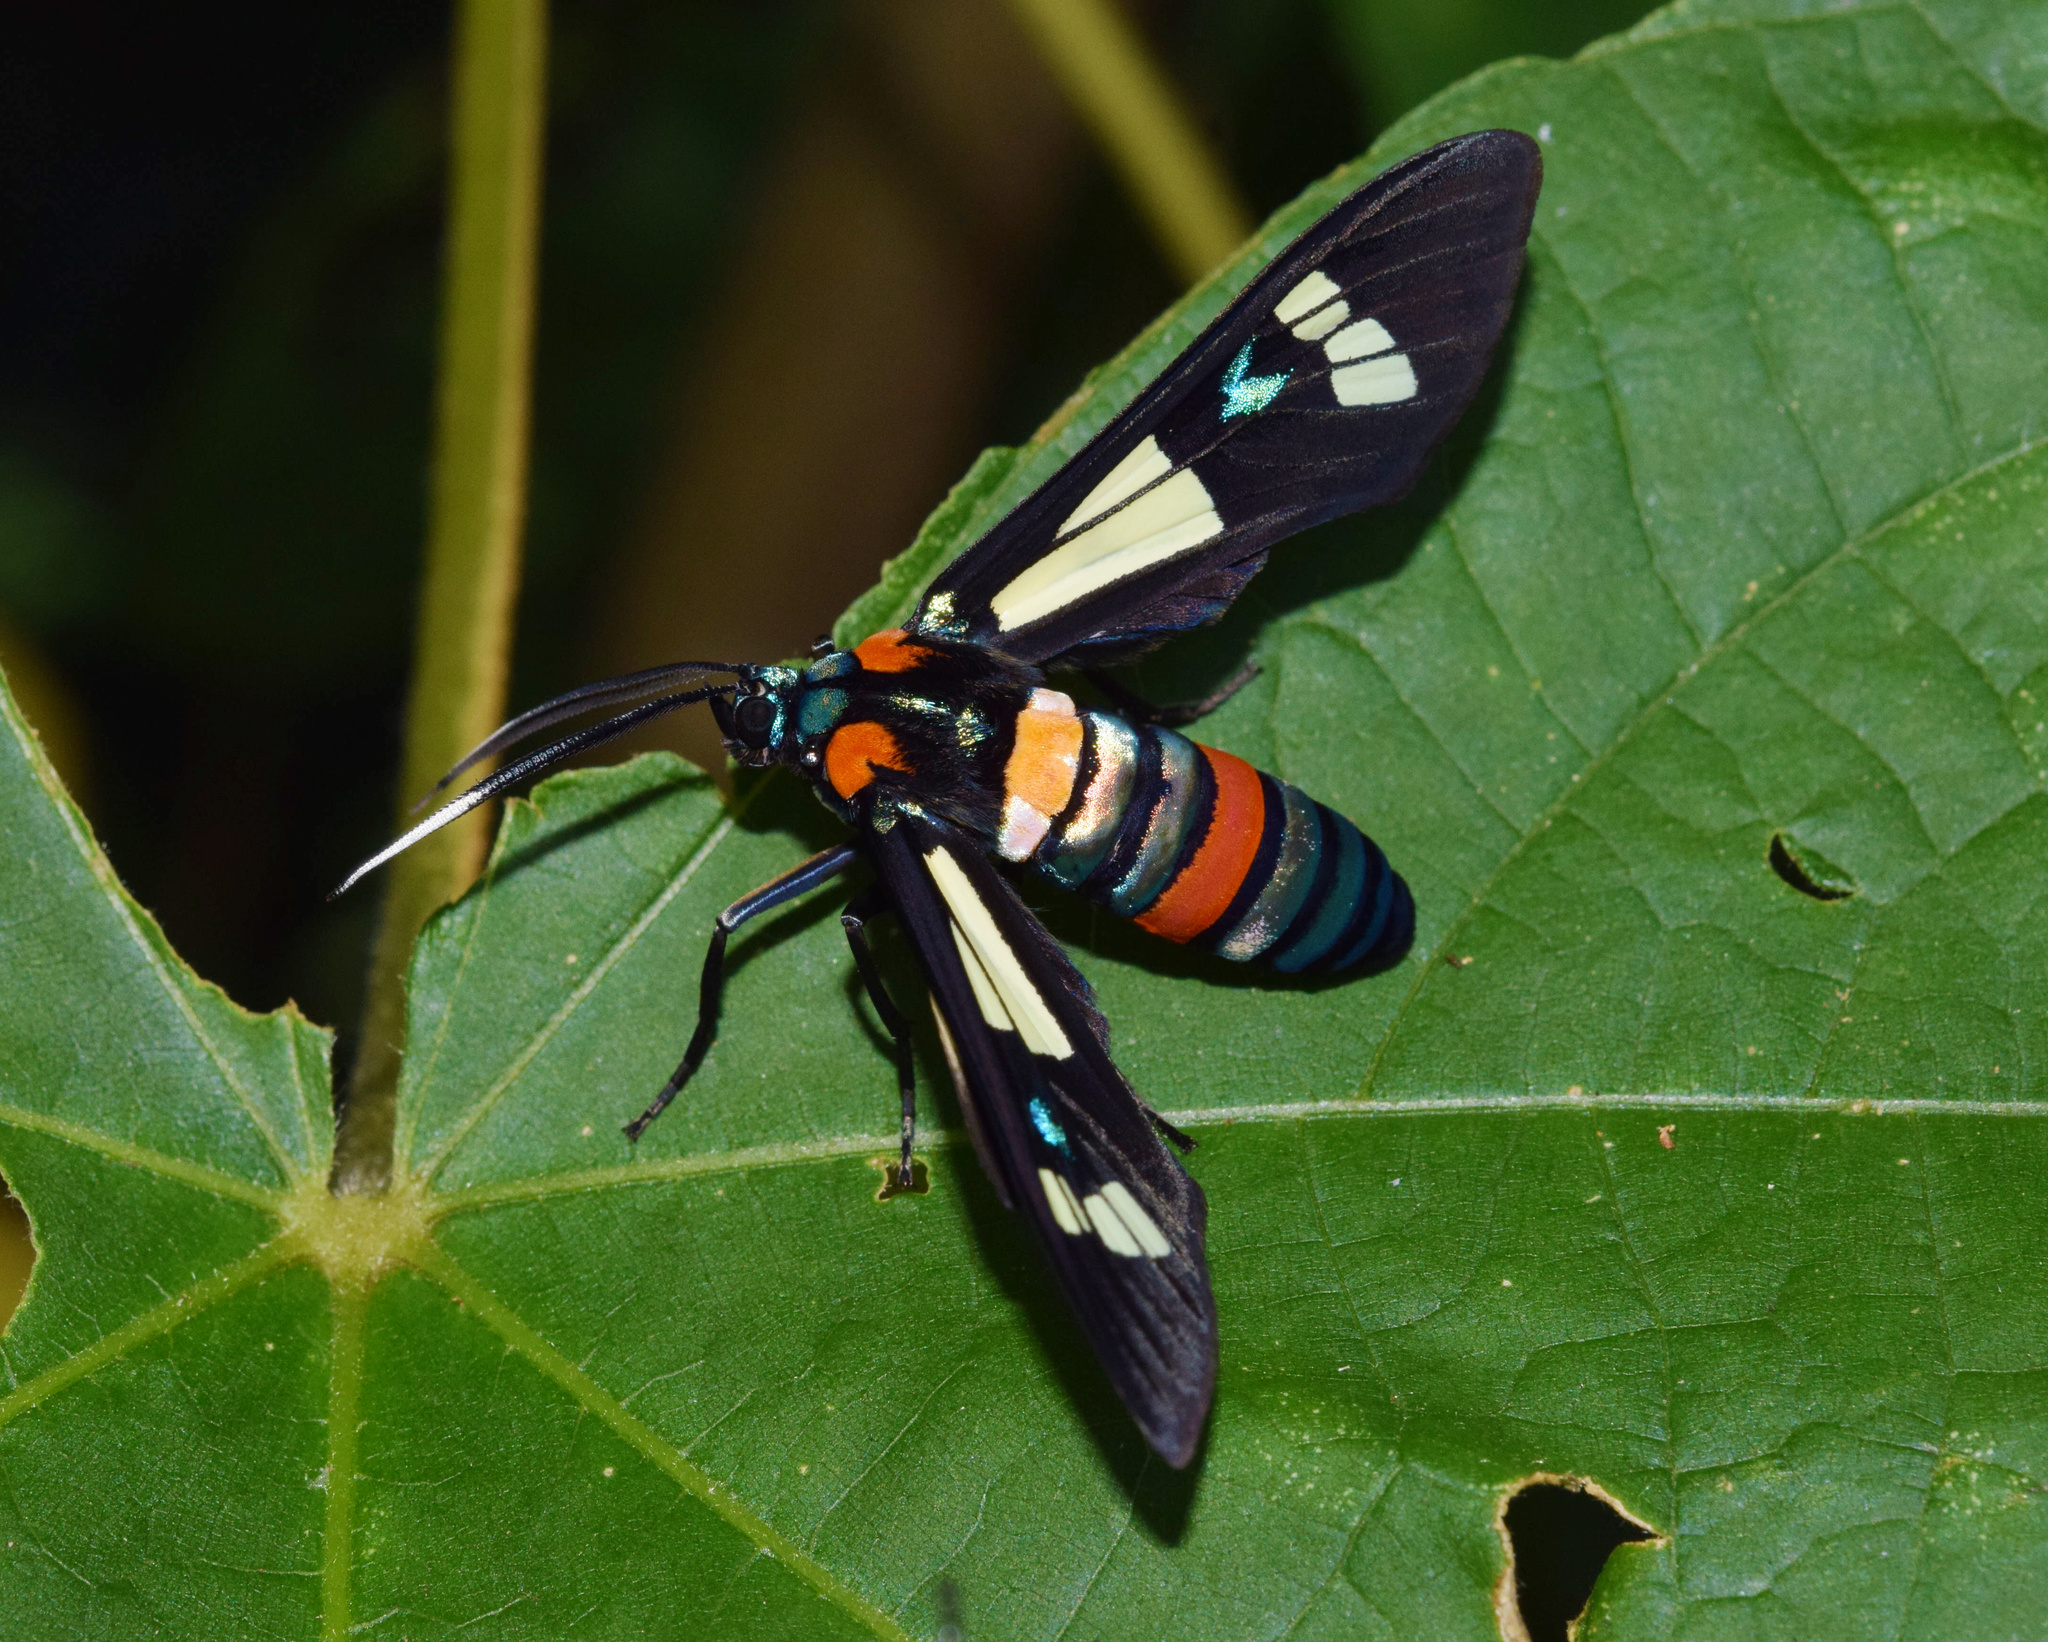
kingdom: Animalia
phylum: Arthropoda
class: Insecta
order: Lepidoptera
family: Erebidae
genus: Euchromia
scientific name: Euchromia folletii
